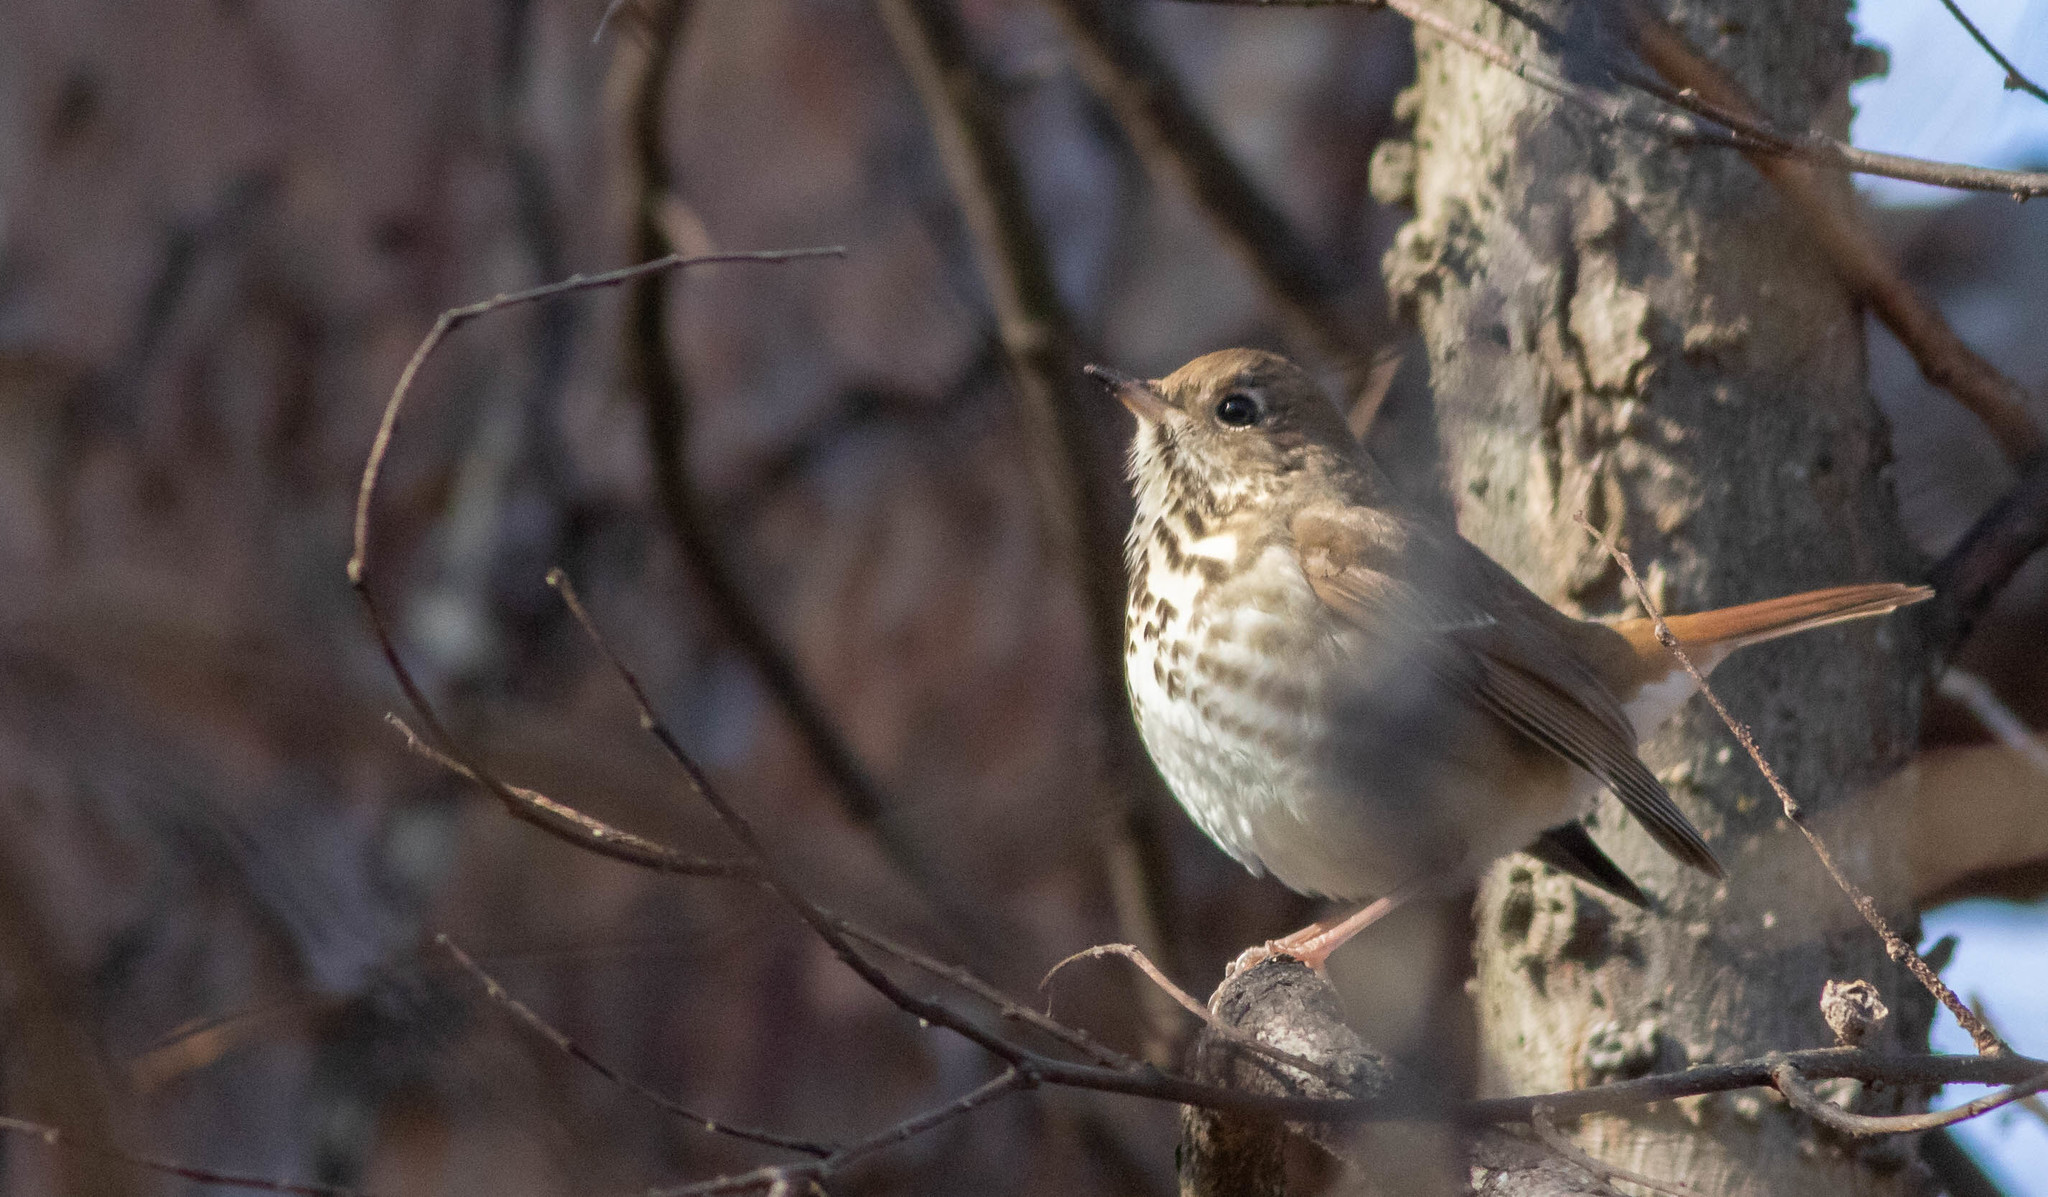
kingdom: Animalia
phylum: Chordata
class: Aves
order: Passeriformes
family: Turdidae
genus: Catharus
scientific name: Catharus guttatus
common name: Hermit thrush
